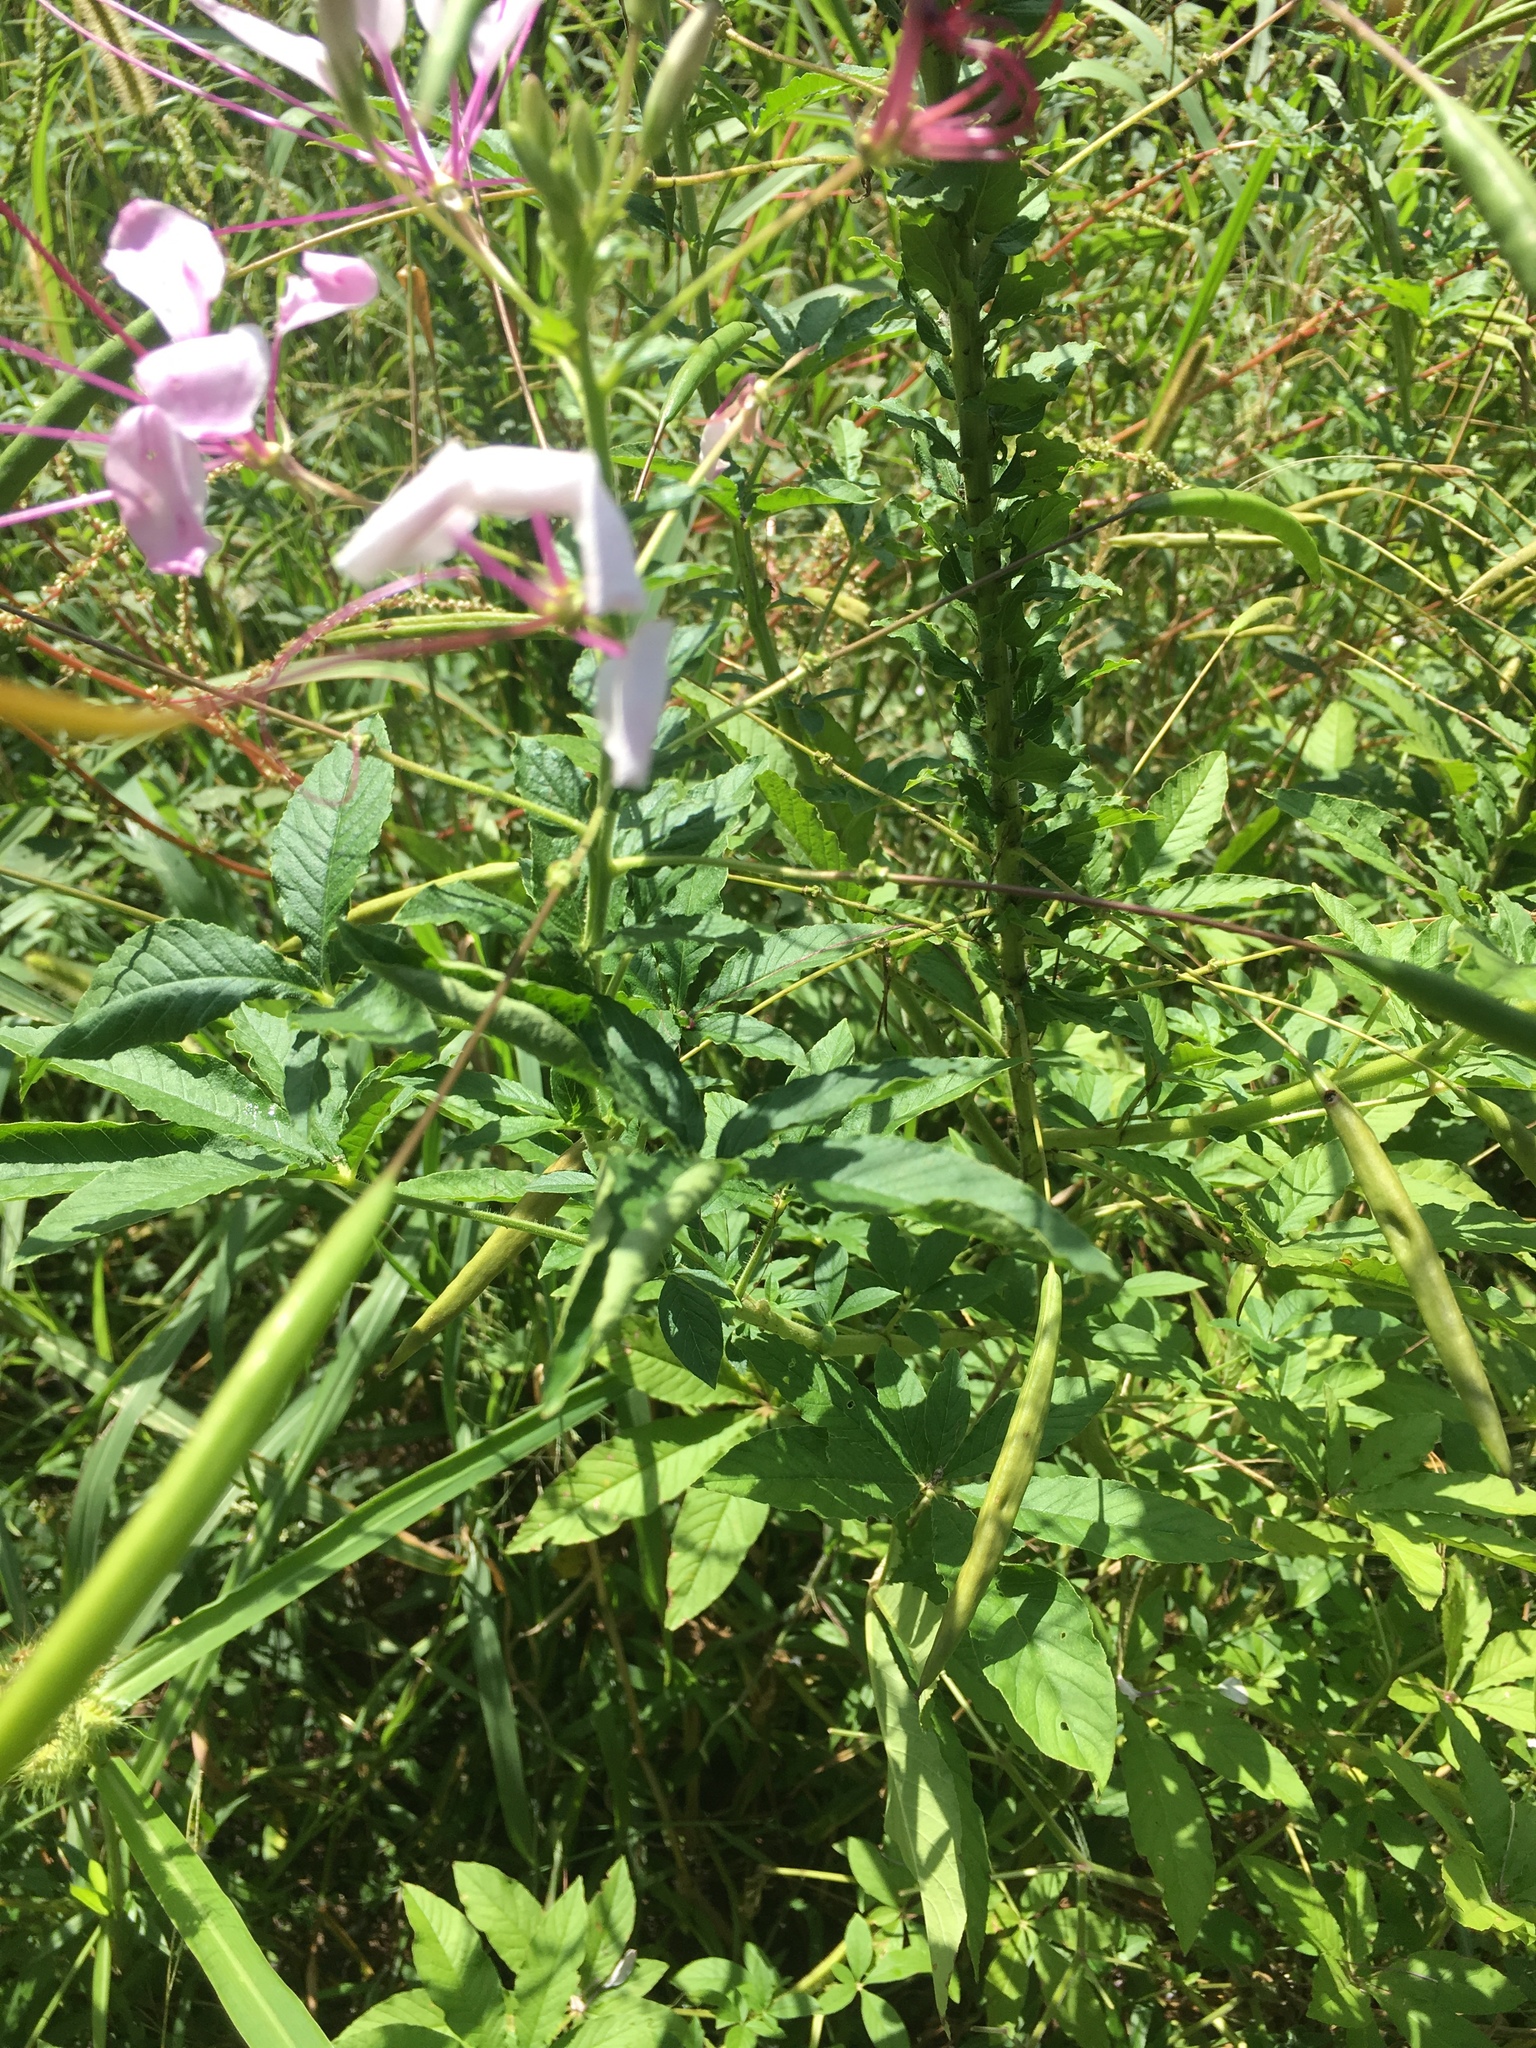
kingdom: Plantae
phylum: Tracheophyta
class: Magnoliopsida
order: Brassicales
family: Cleomaceae
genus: Tarenaya
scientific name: Tarenaya houtteana
